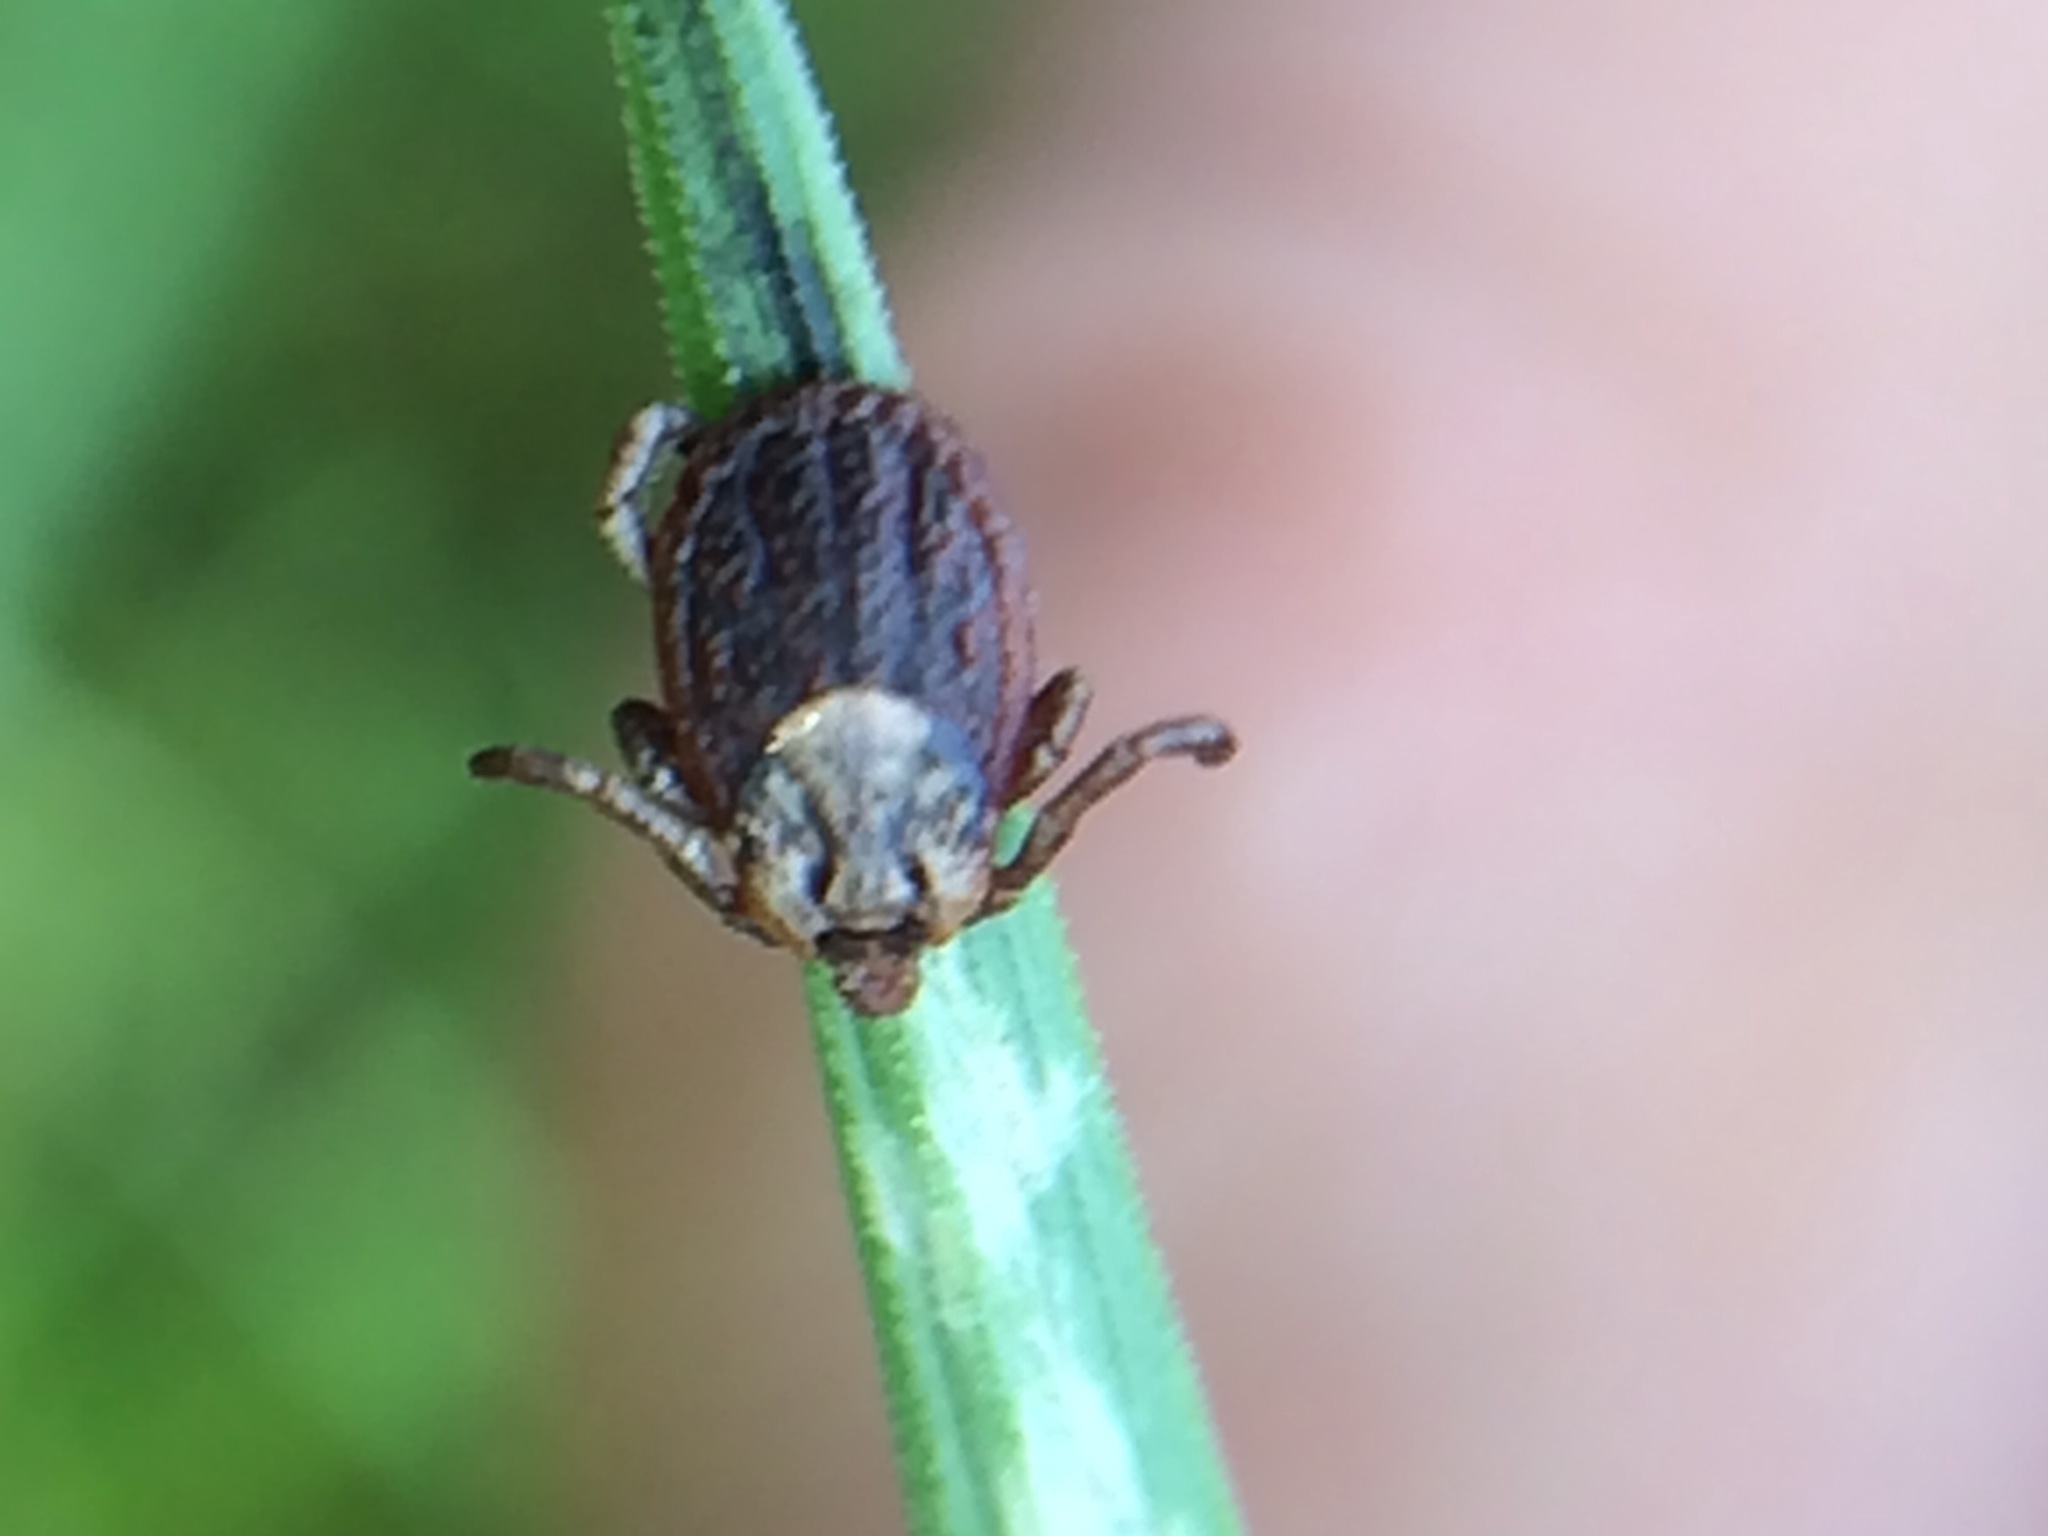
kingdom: Animalia
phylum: Arthropoda
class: Arachnida
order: Ixodida
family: Ixodidae
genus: Dermacentor
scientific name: Dermacentor occidentalis
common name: Net tick
